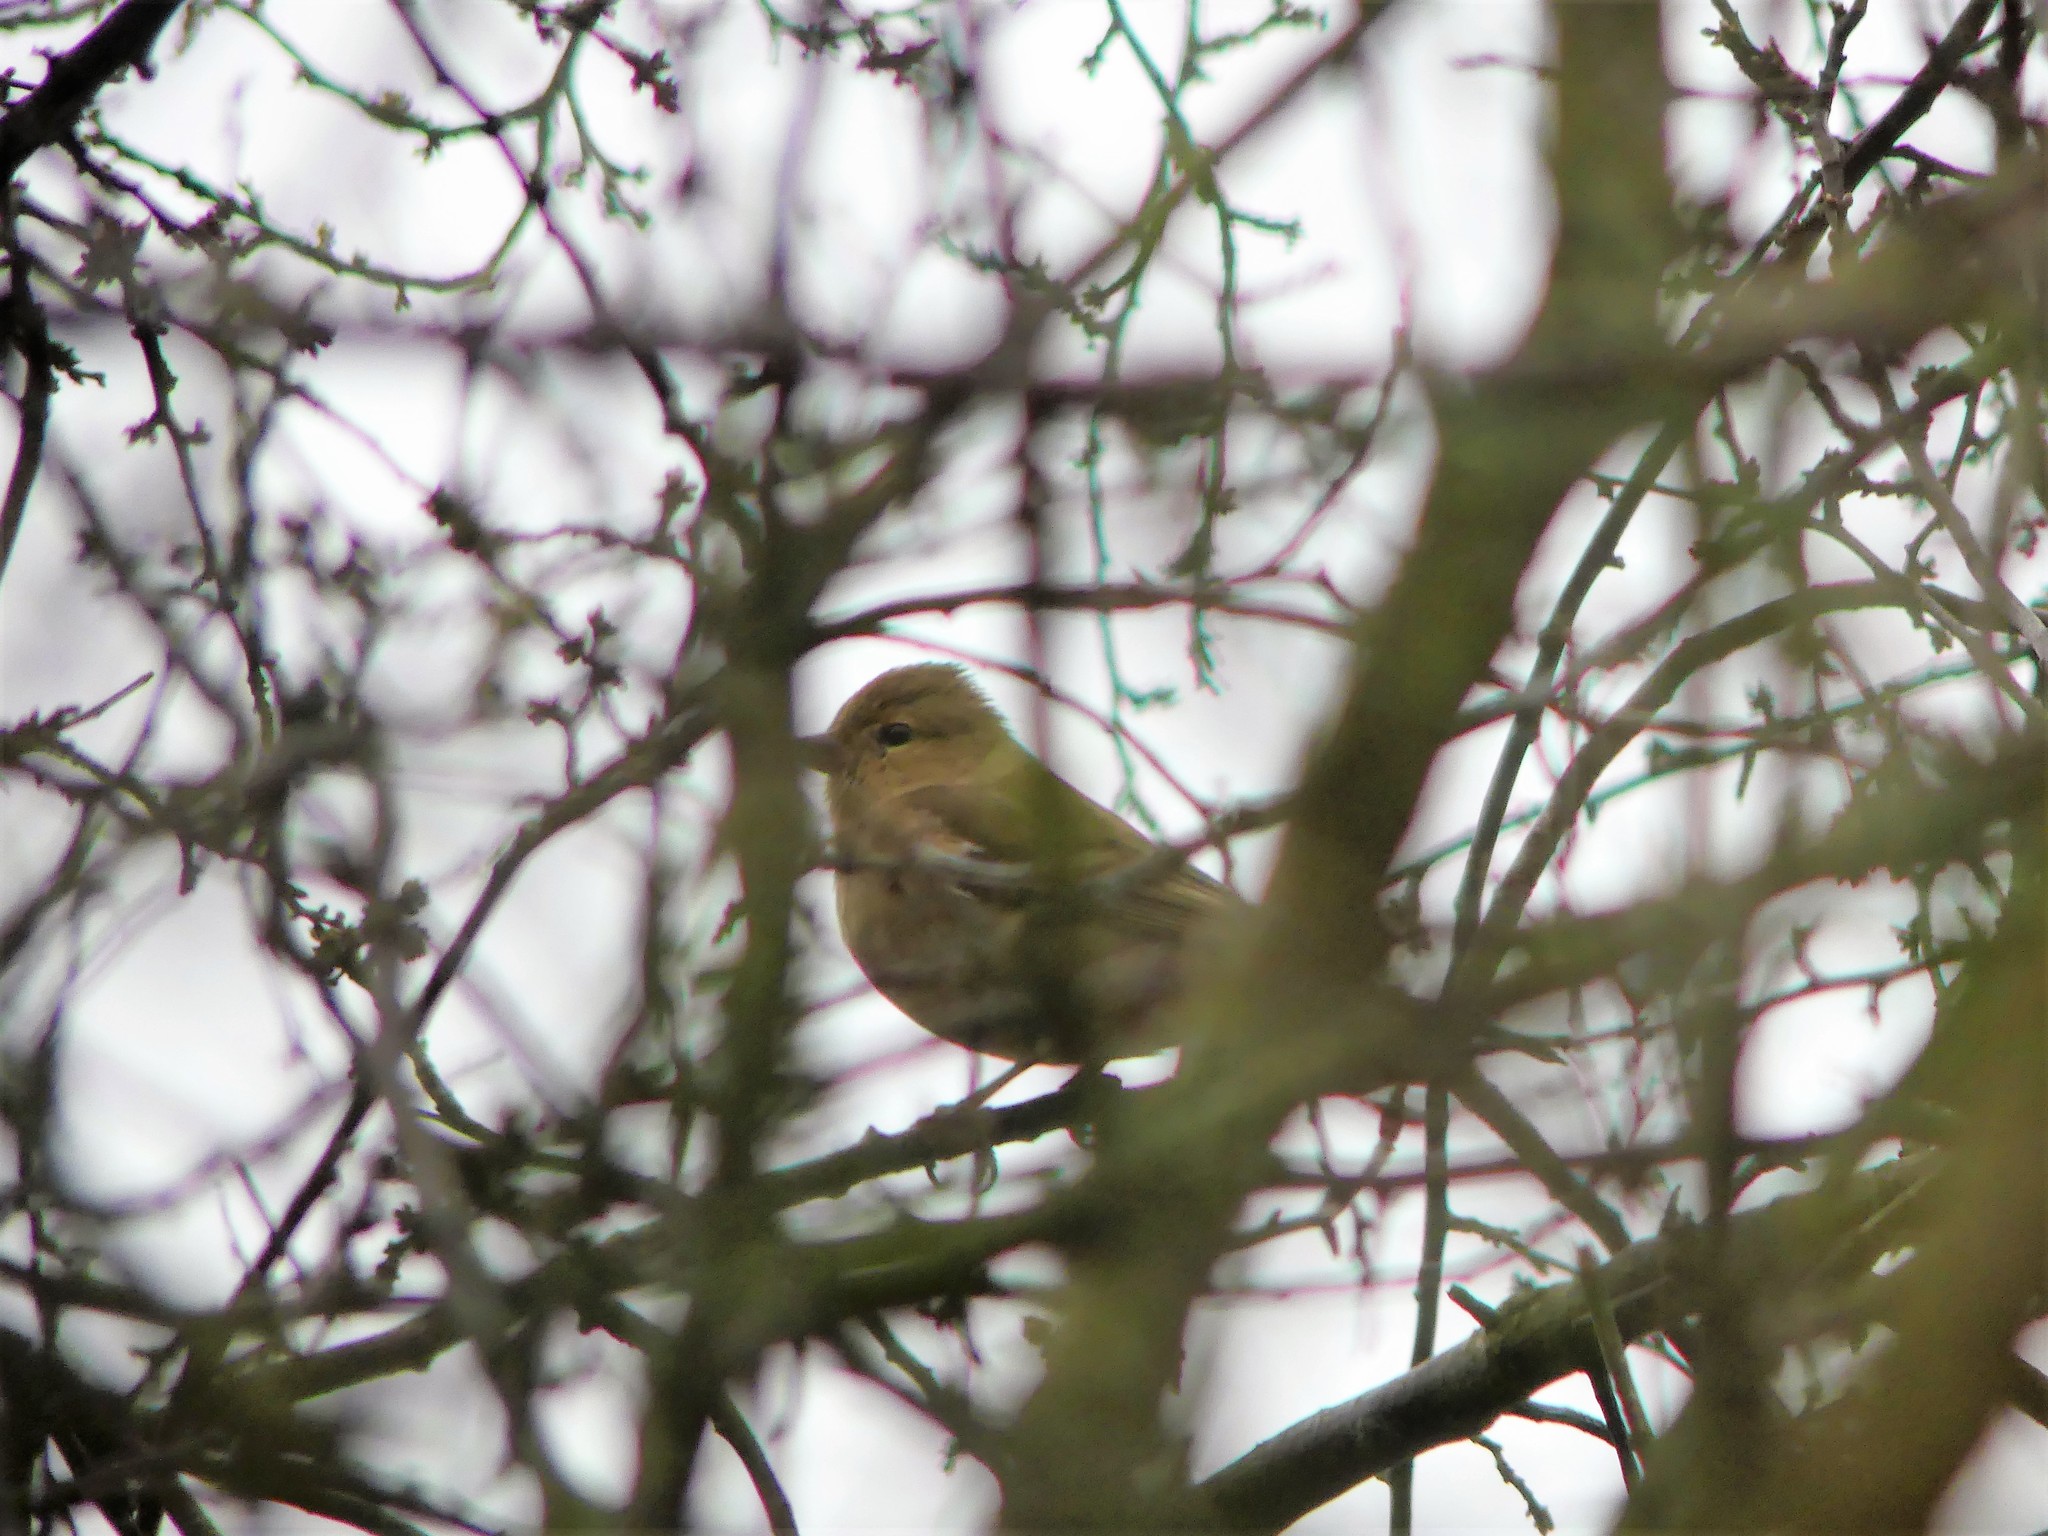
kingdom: Animalia
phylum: Chordata
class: Aves
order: Passeriformes
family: Fringillidae
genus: Fringilla
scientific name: Fringilla coelebs
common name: Common chaffinch
